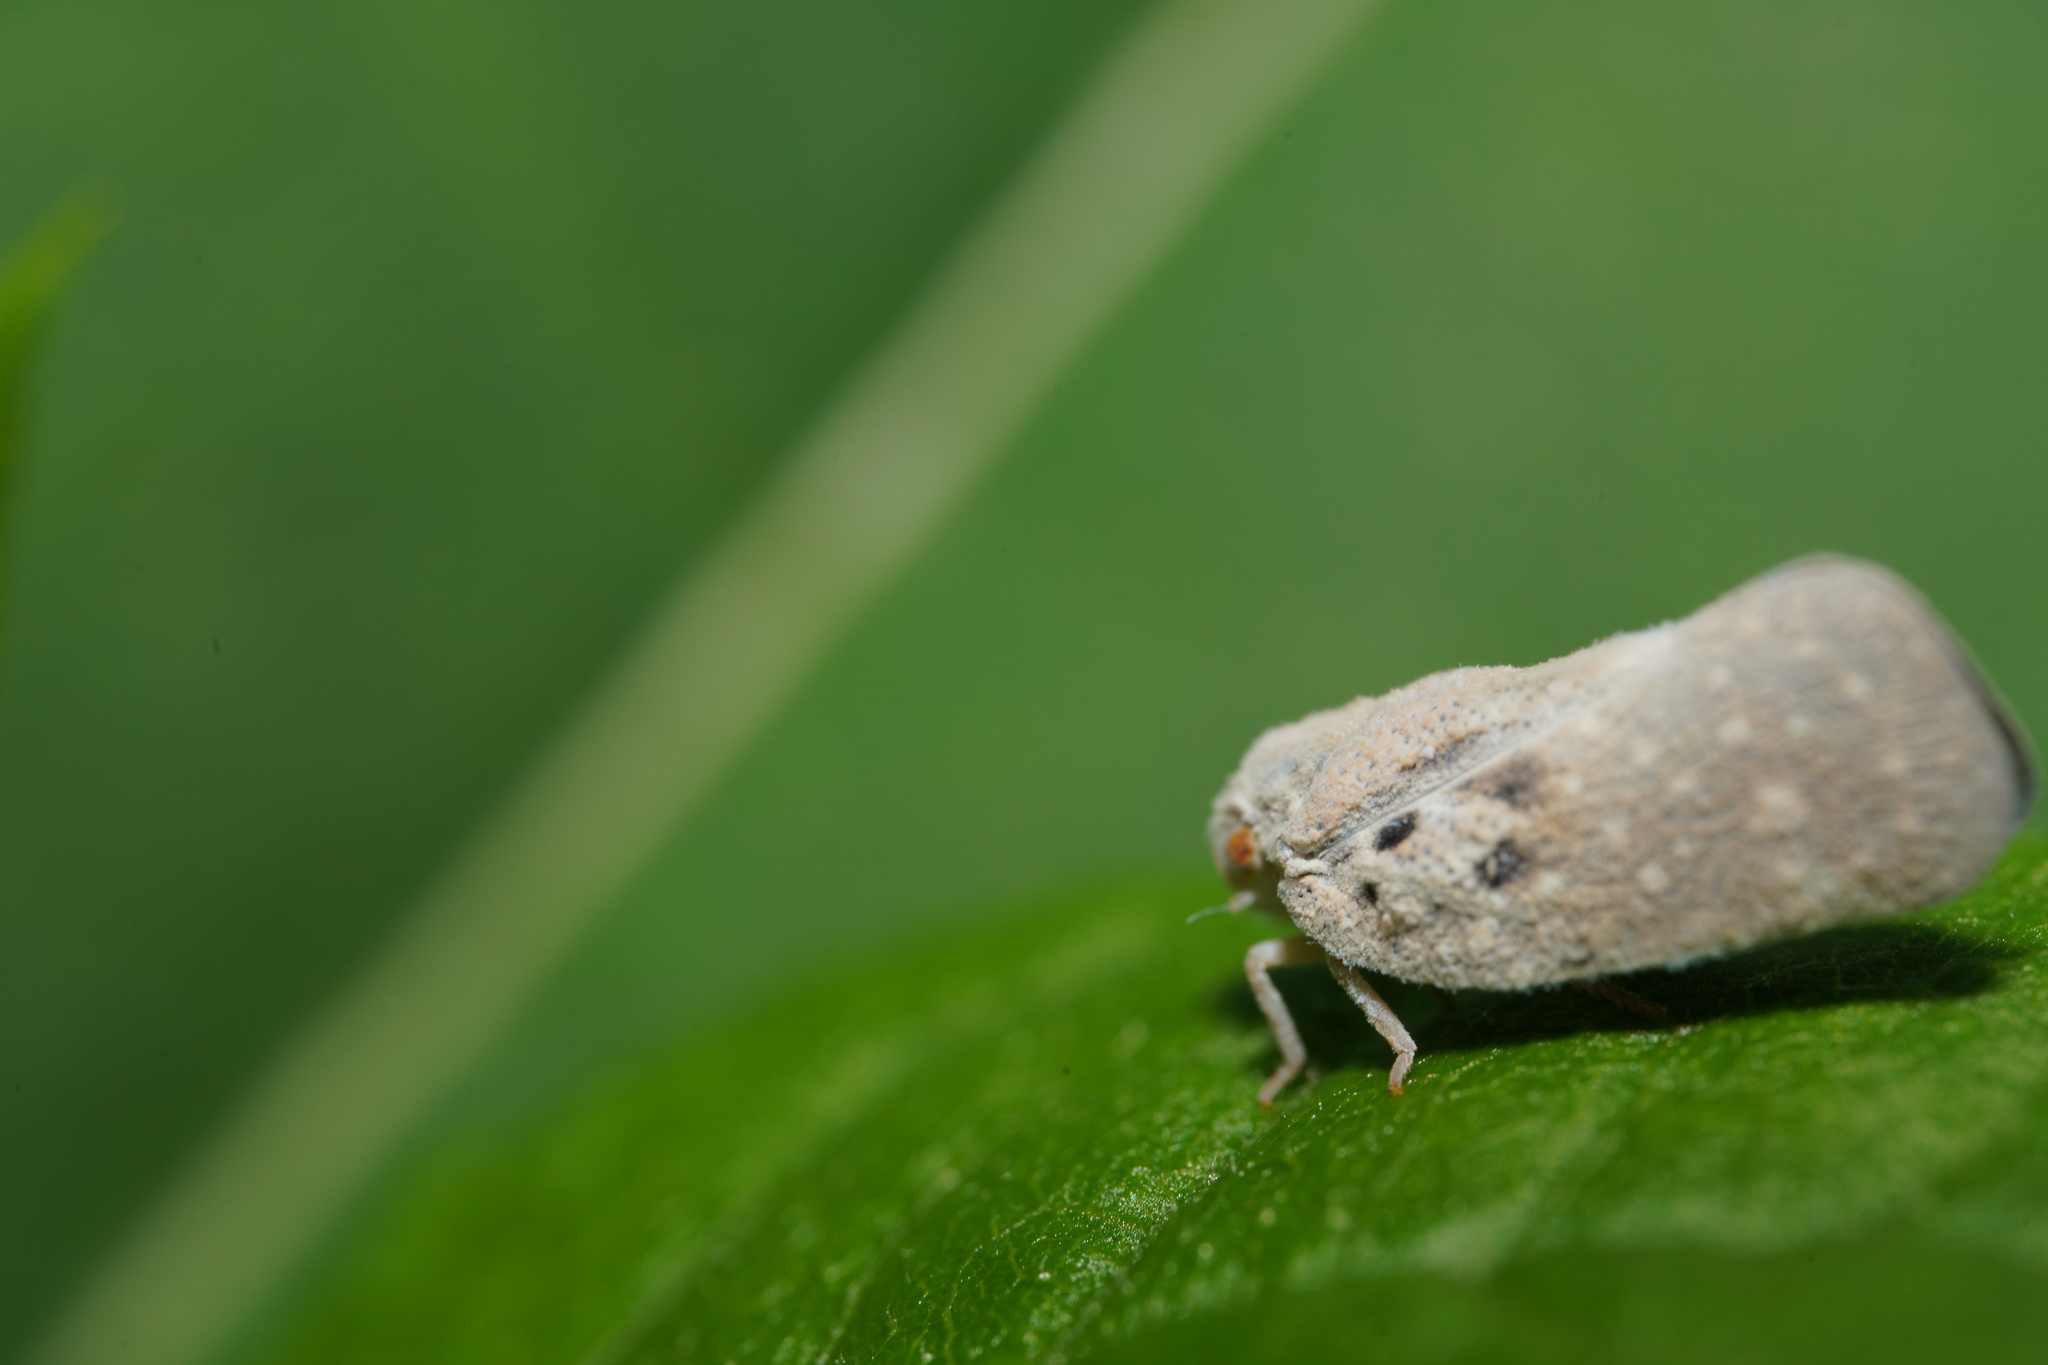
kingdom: Animalia
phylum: Arthropoda
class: Insecta
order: Hemiptera
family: Flatidae
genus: Metcalfa
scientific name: Metcalfa pruinosa
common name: Citrus flatid planthopper
